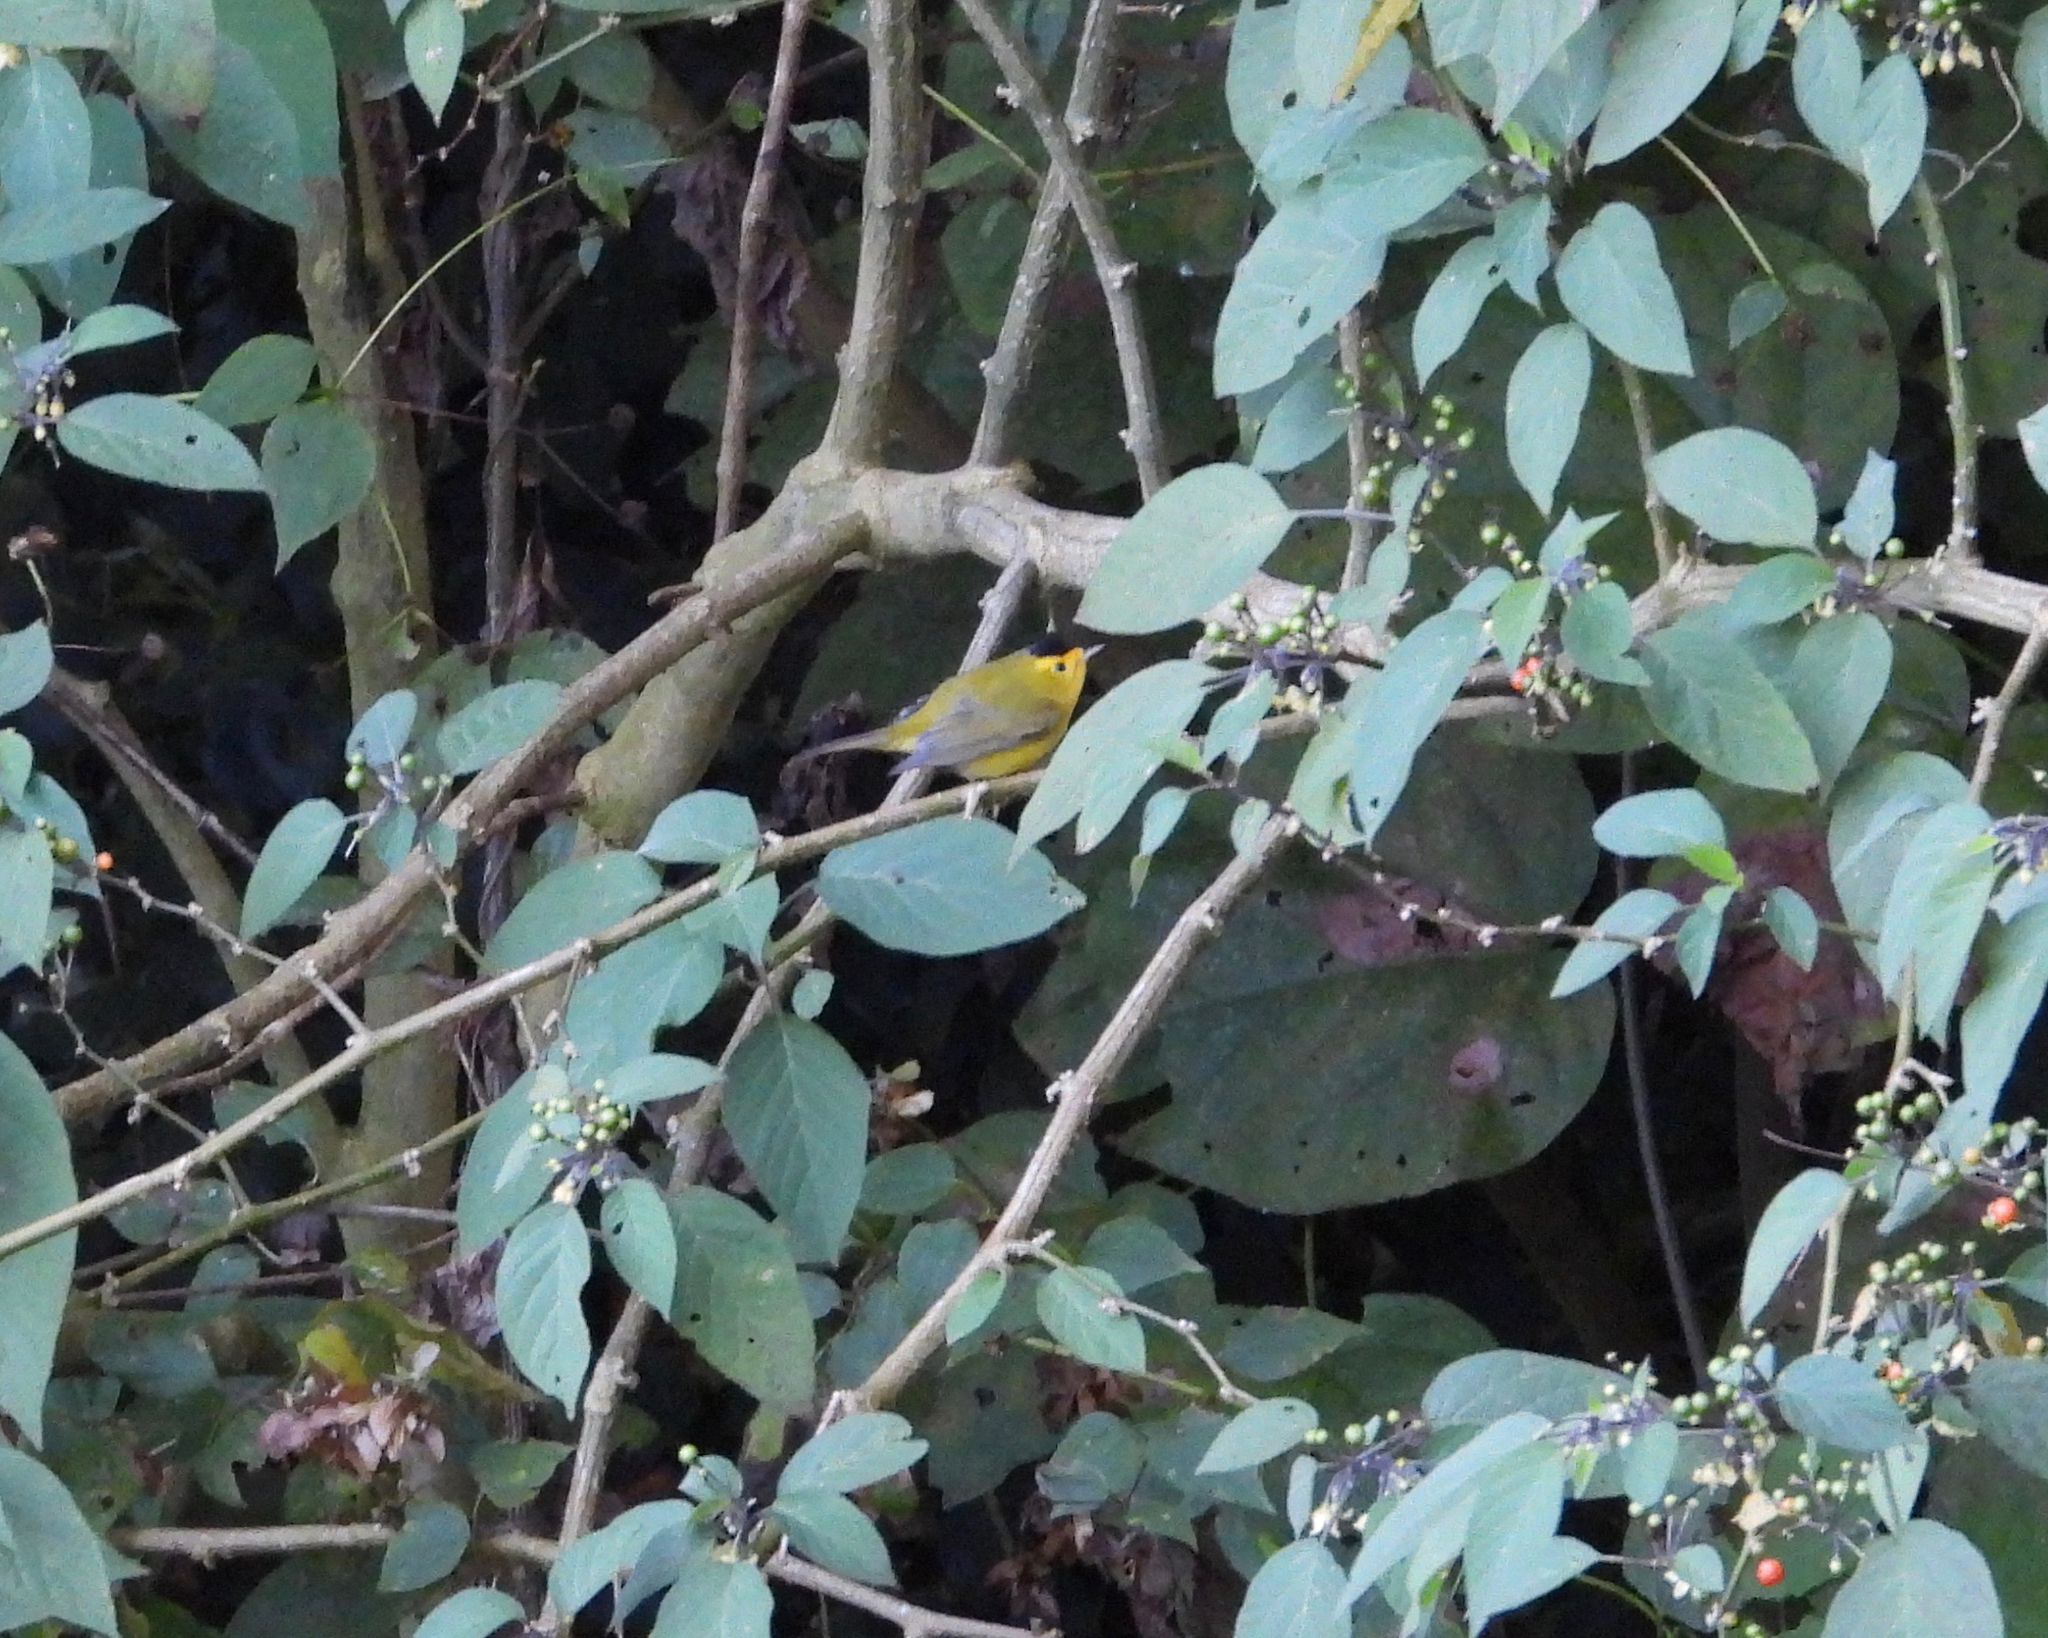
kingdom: Animalia
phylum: Chordata
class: Aves
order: Passeriformes
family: Parulidae
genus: Cardellina
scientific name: Cardellina pusilla
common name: Wilson's warbler
